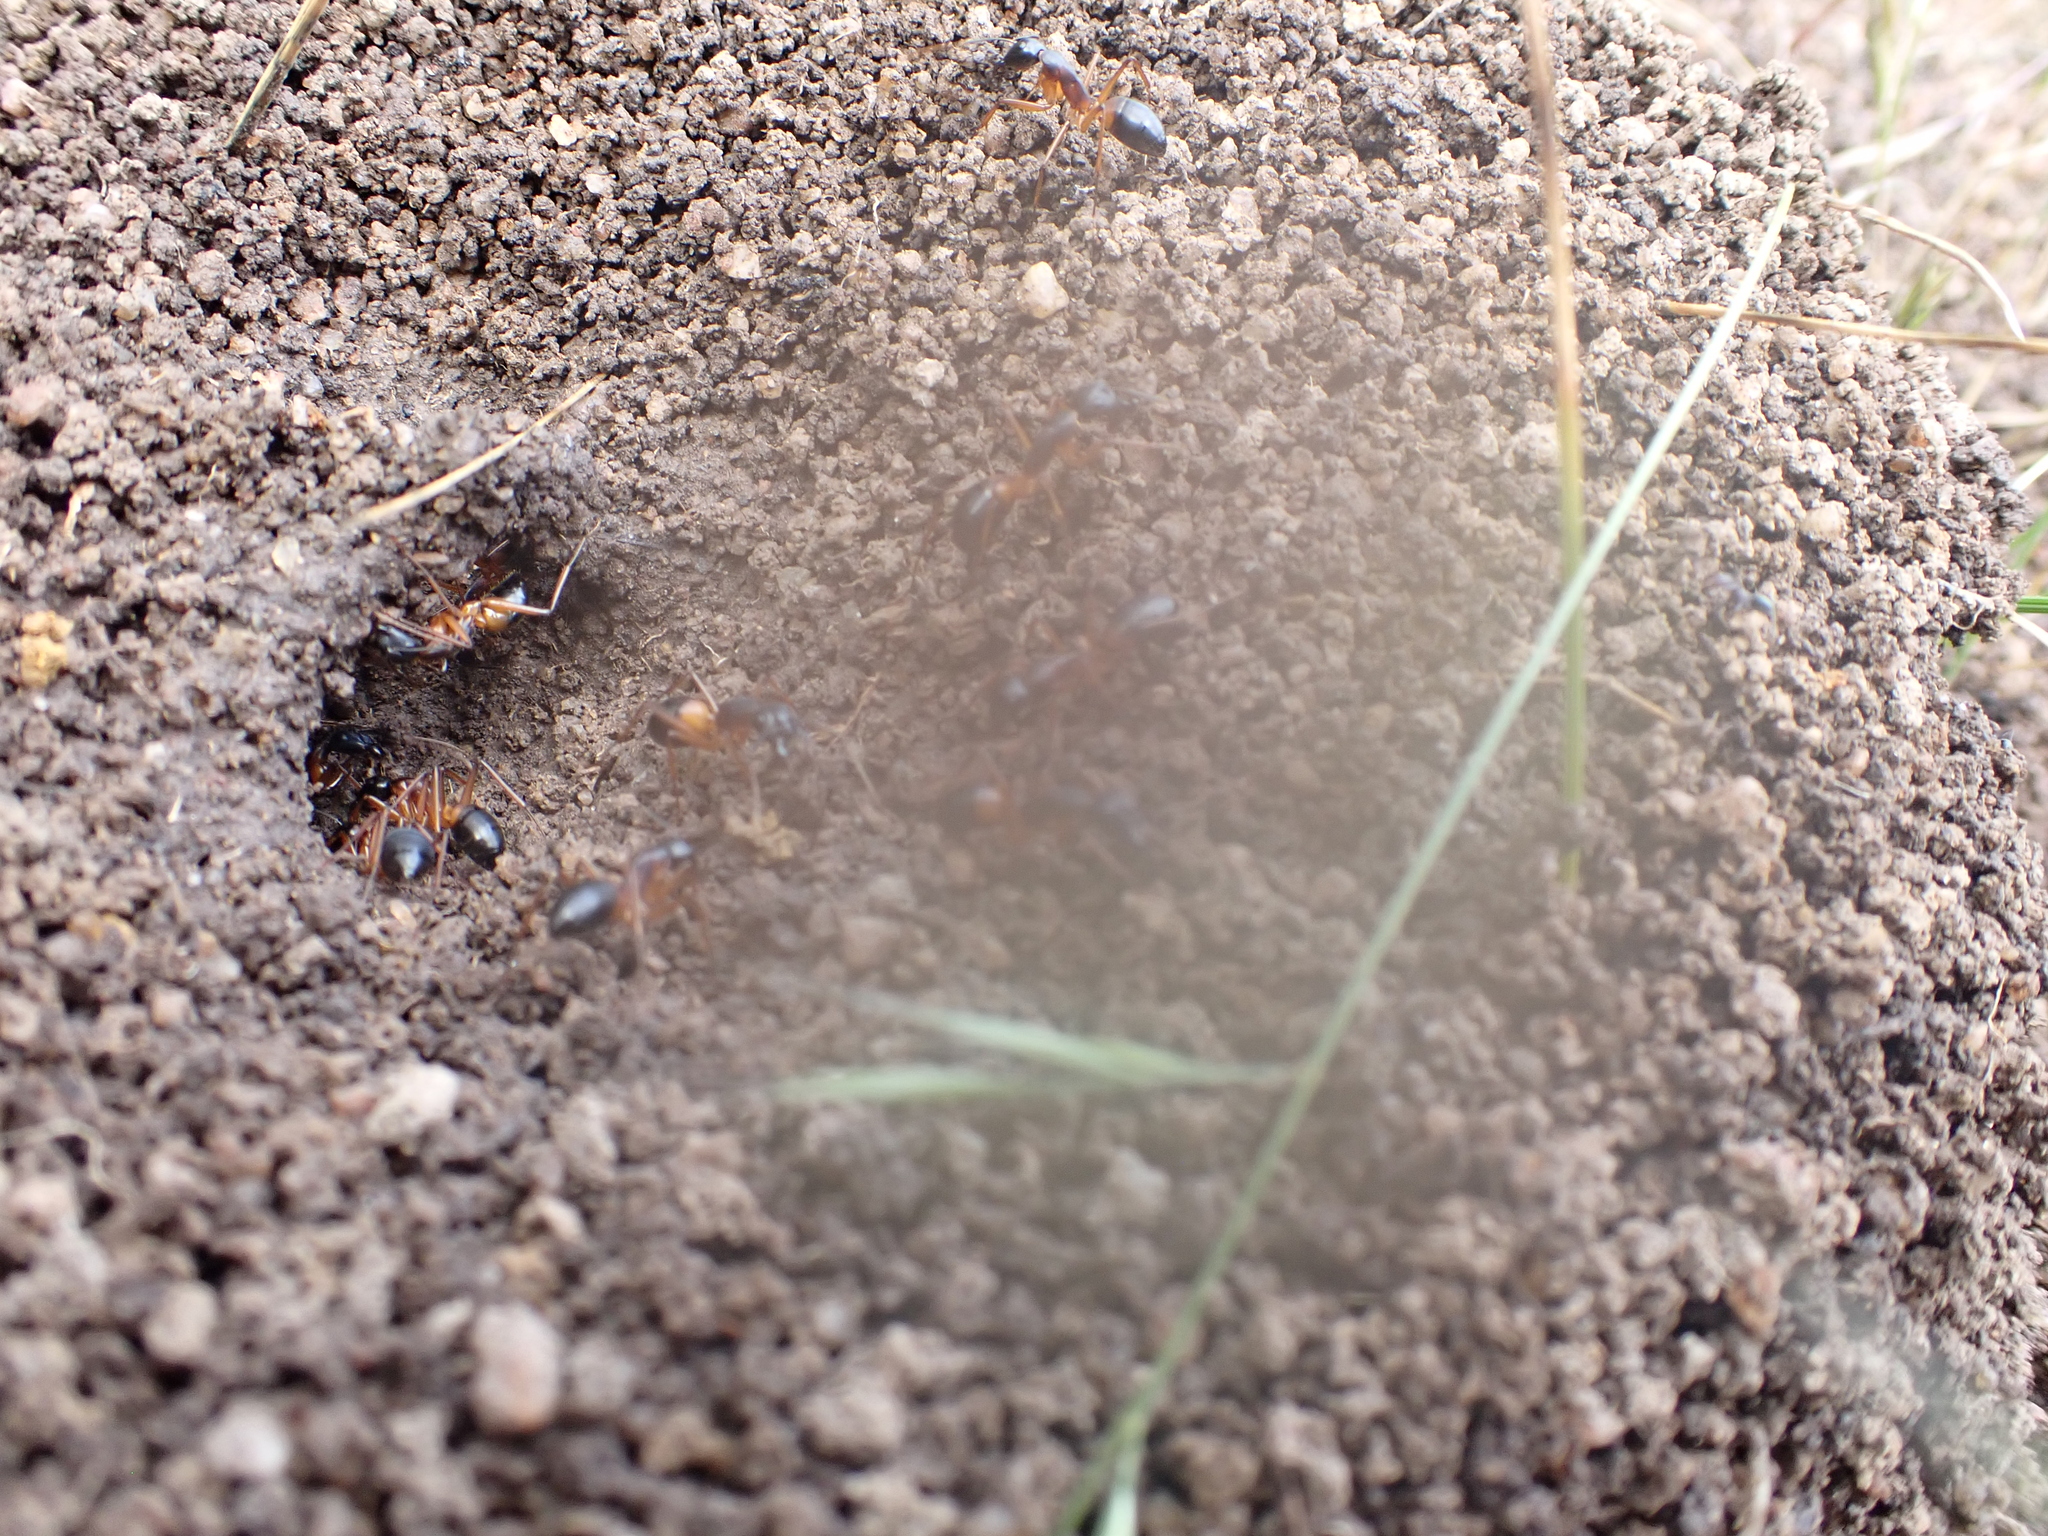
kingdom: Animalia
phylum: Arthropoda
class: Insecta
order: Hymenoptera
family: Formicidae
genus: Camponotus
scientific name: Camponotus consobrinus
